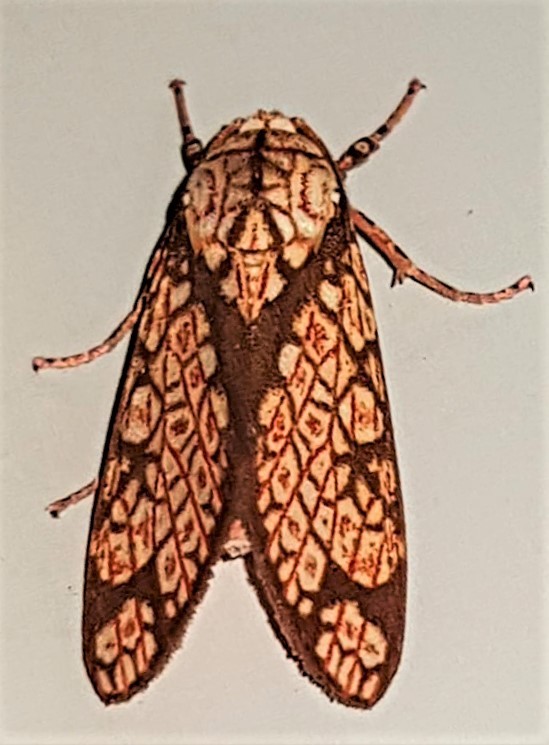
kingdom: Animalia
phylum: Arthropoda
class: Insecta
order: Lepidoptera
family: Erebidae
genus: Cresera
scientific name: Cresera similis
